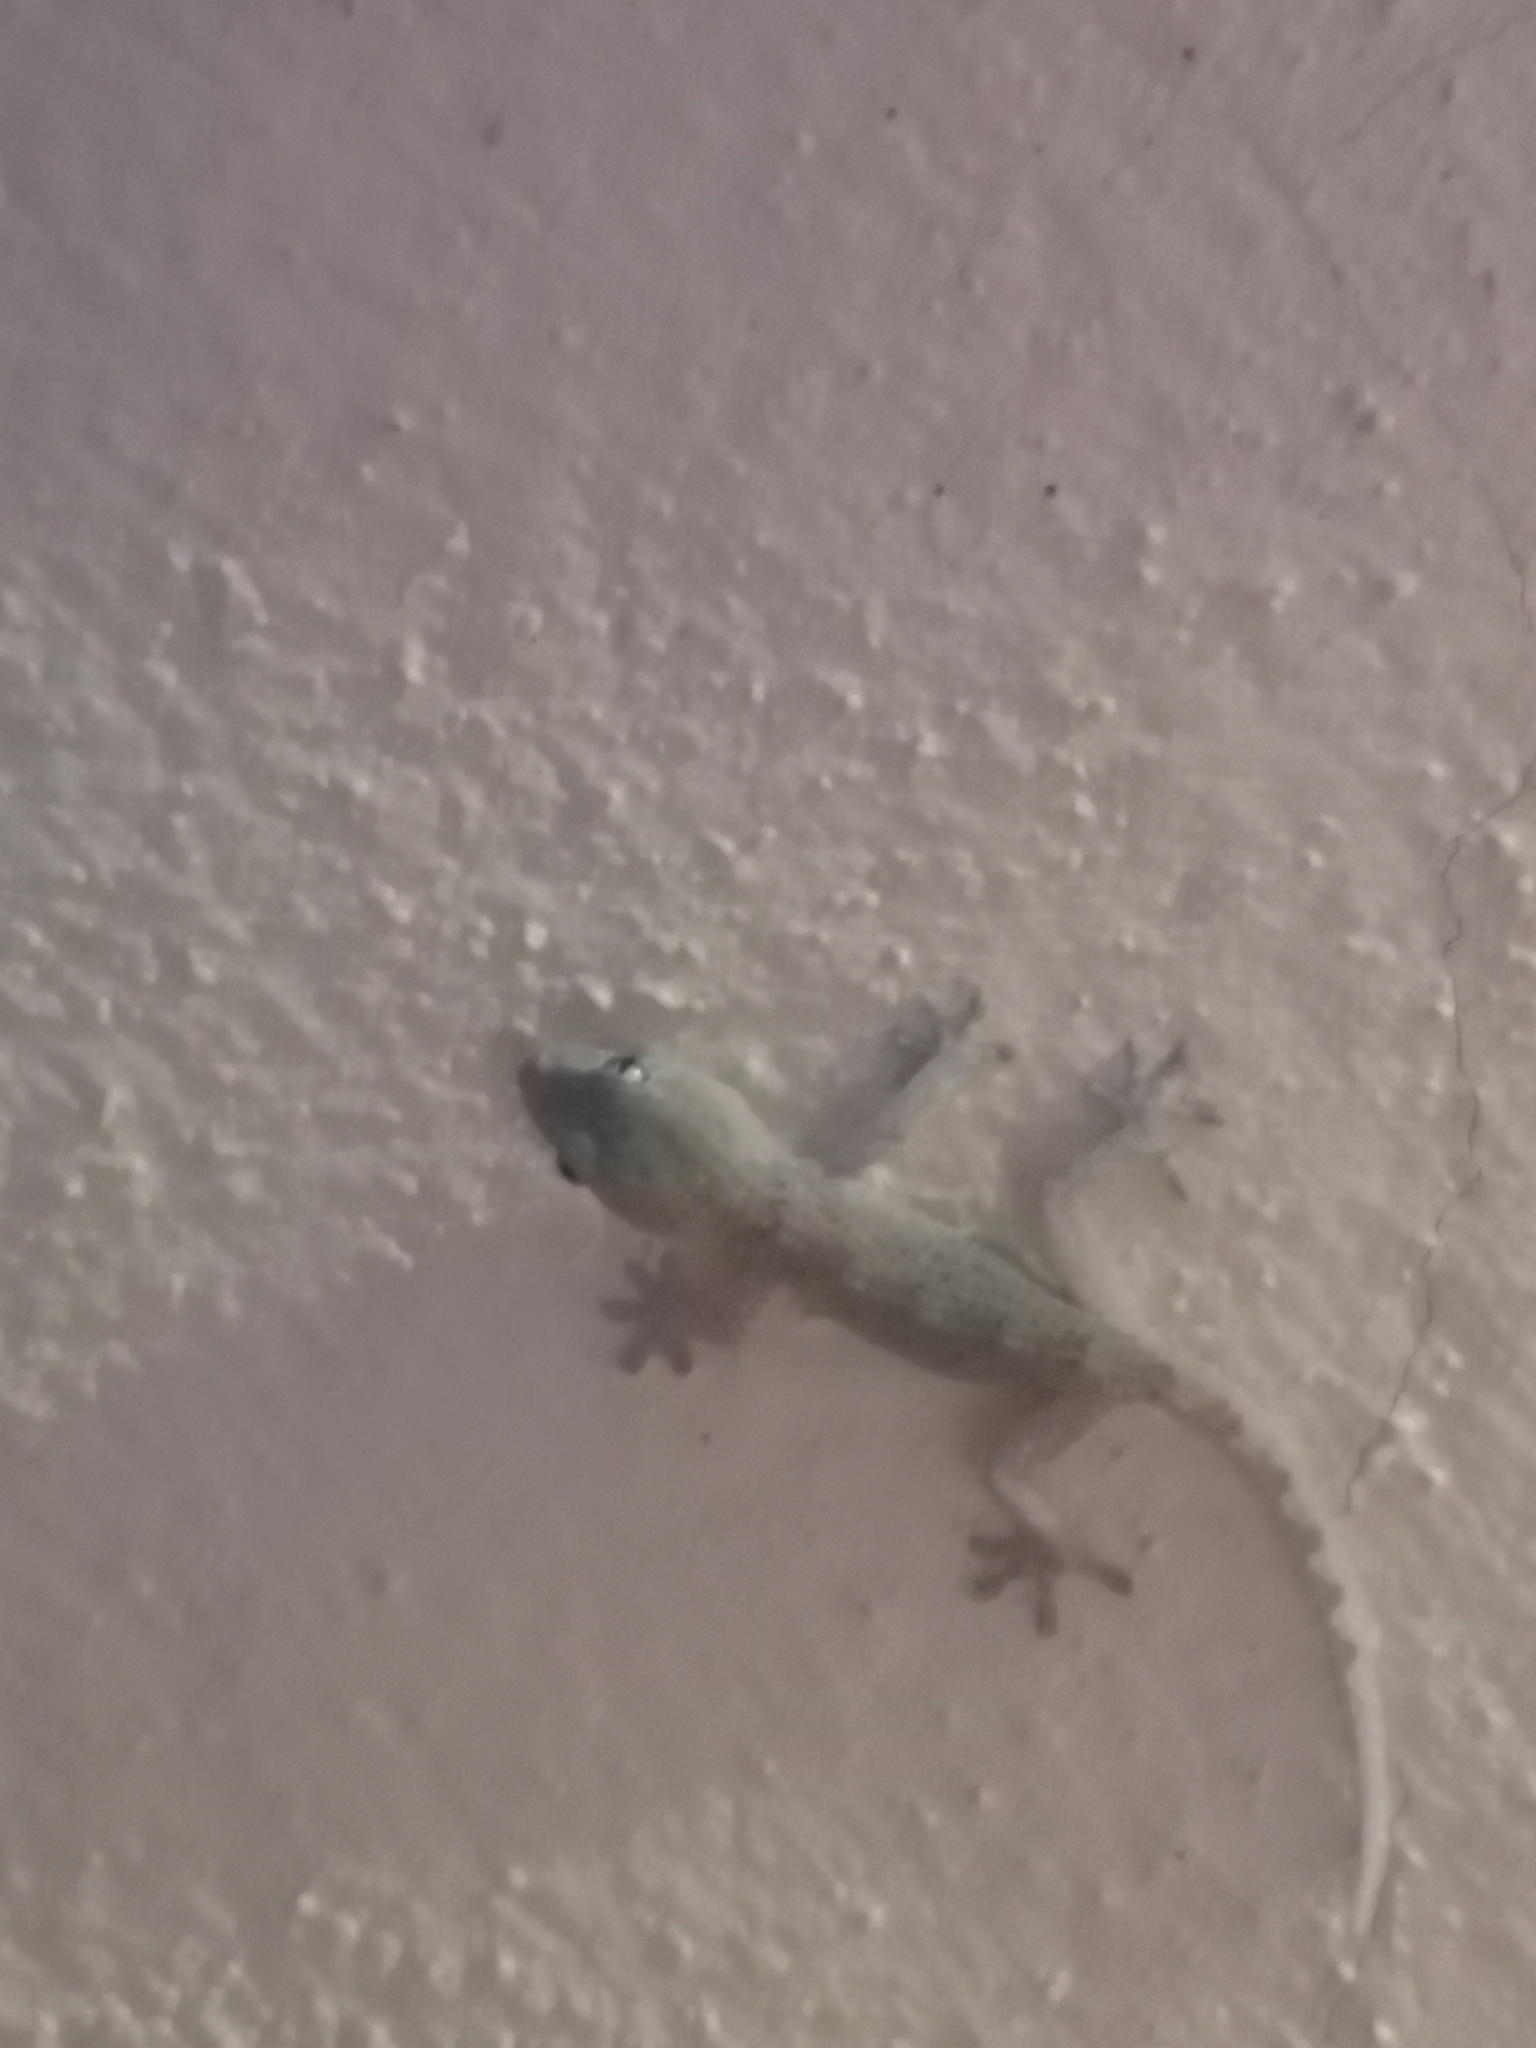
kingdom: Animalia
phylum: Chordata
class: Squamata
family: Phyllodactylidae
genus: Tarentola
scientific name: Tarentola delalandii
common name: Tenerife wall gecko
